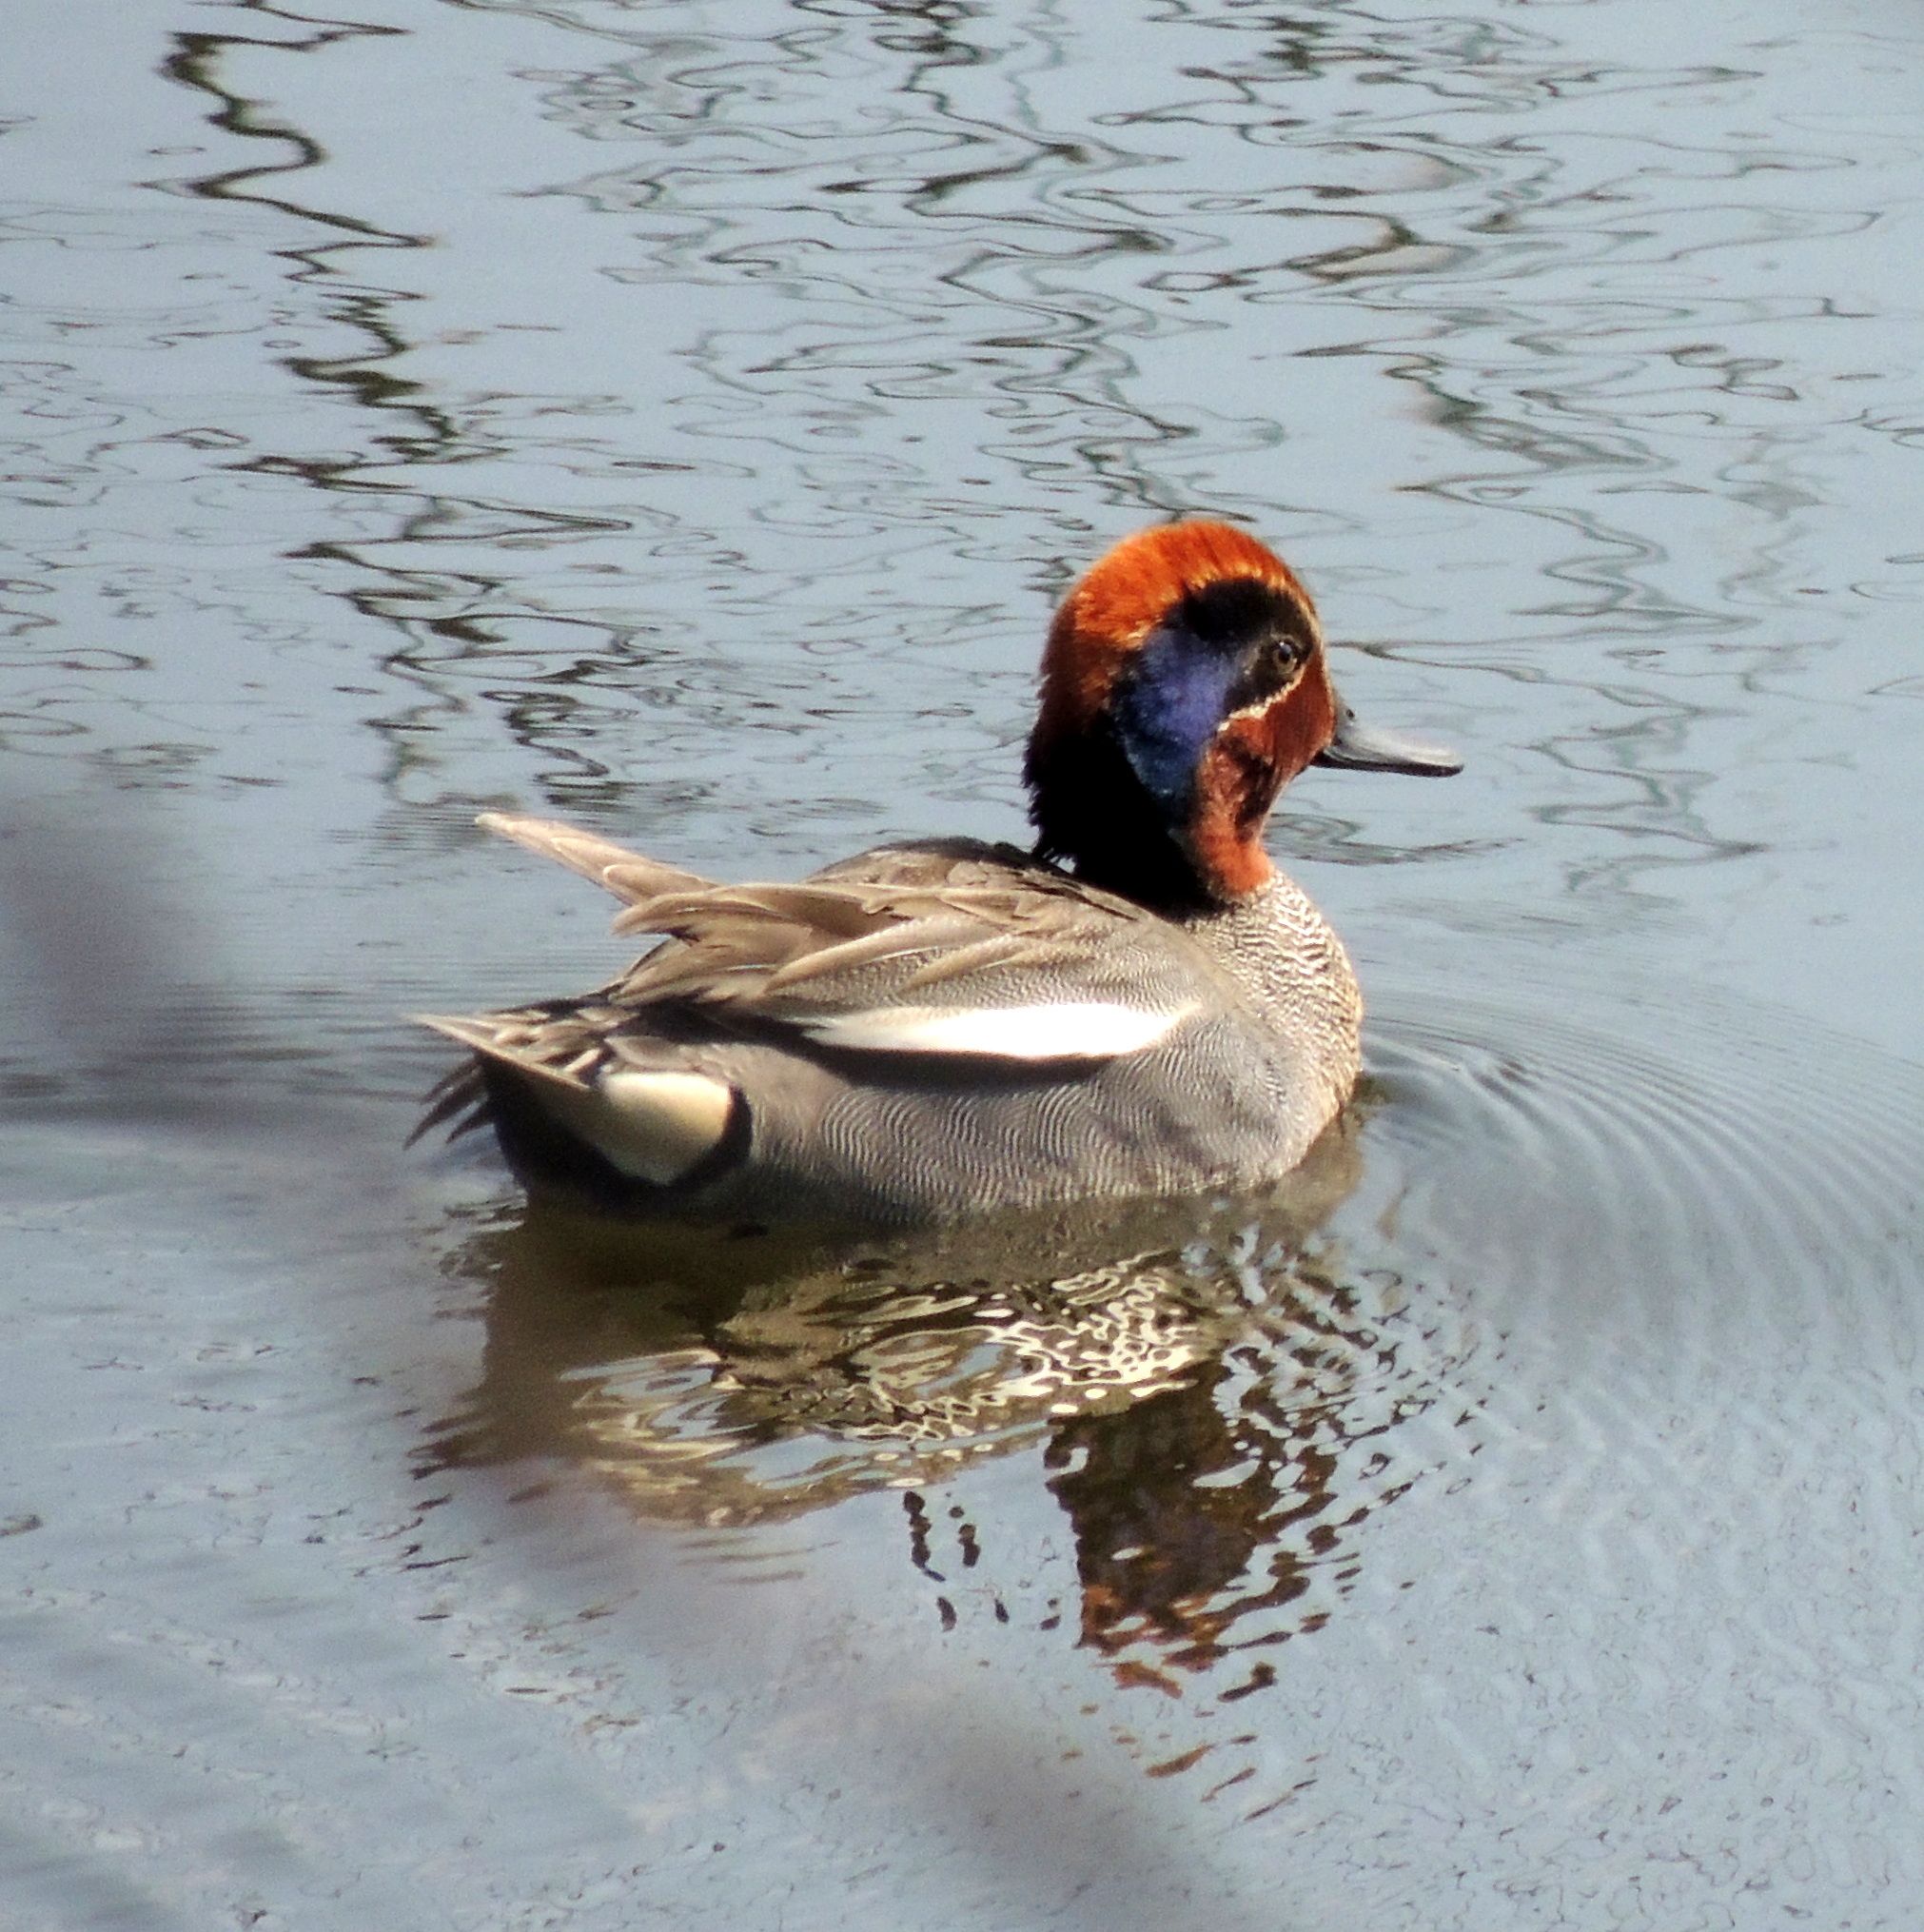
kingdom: Animalia
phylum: Chordata
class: Aves
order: Anseriformes
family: Anatidae
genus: Anas
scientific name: Anas crecca
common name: Eurasian teal
